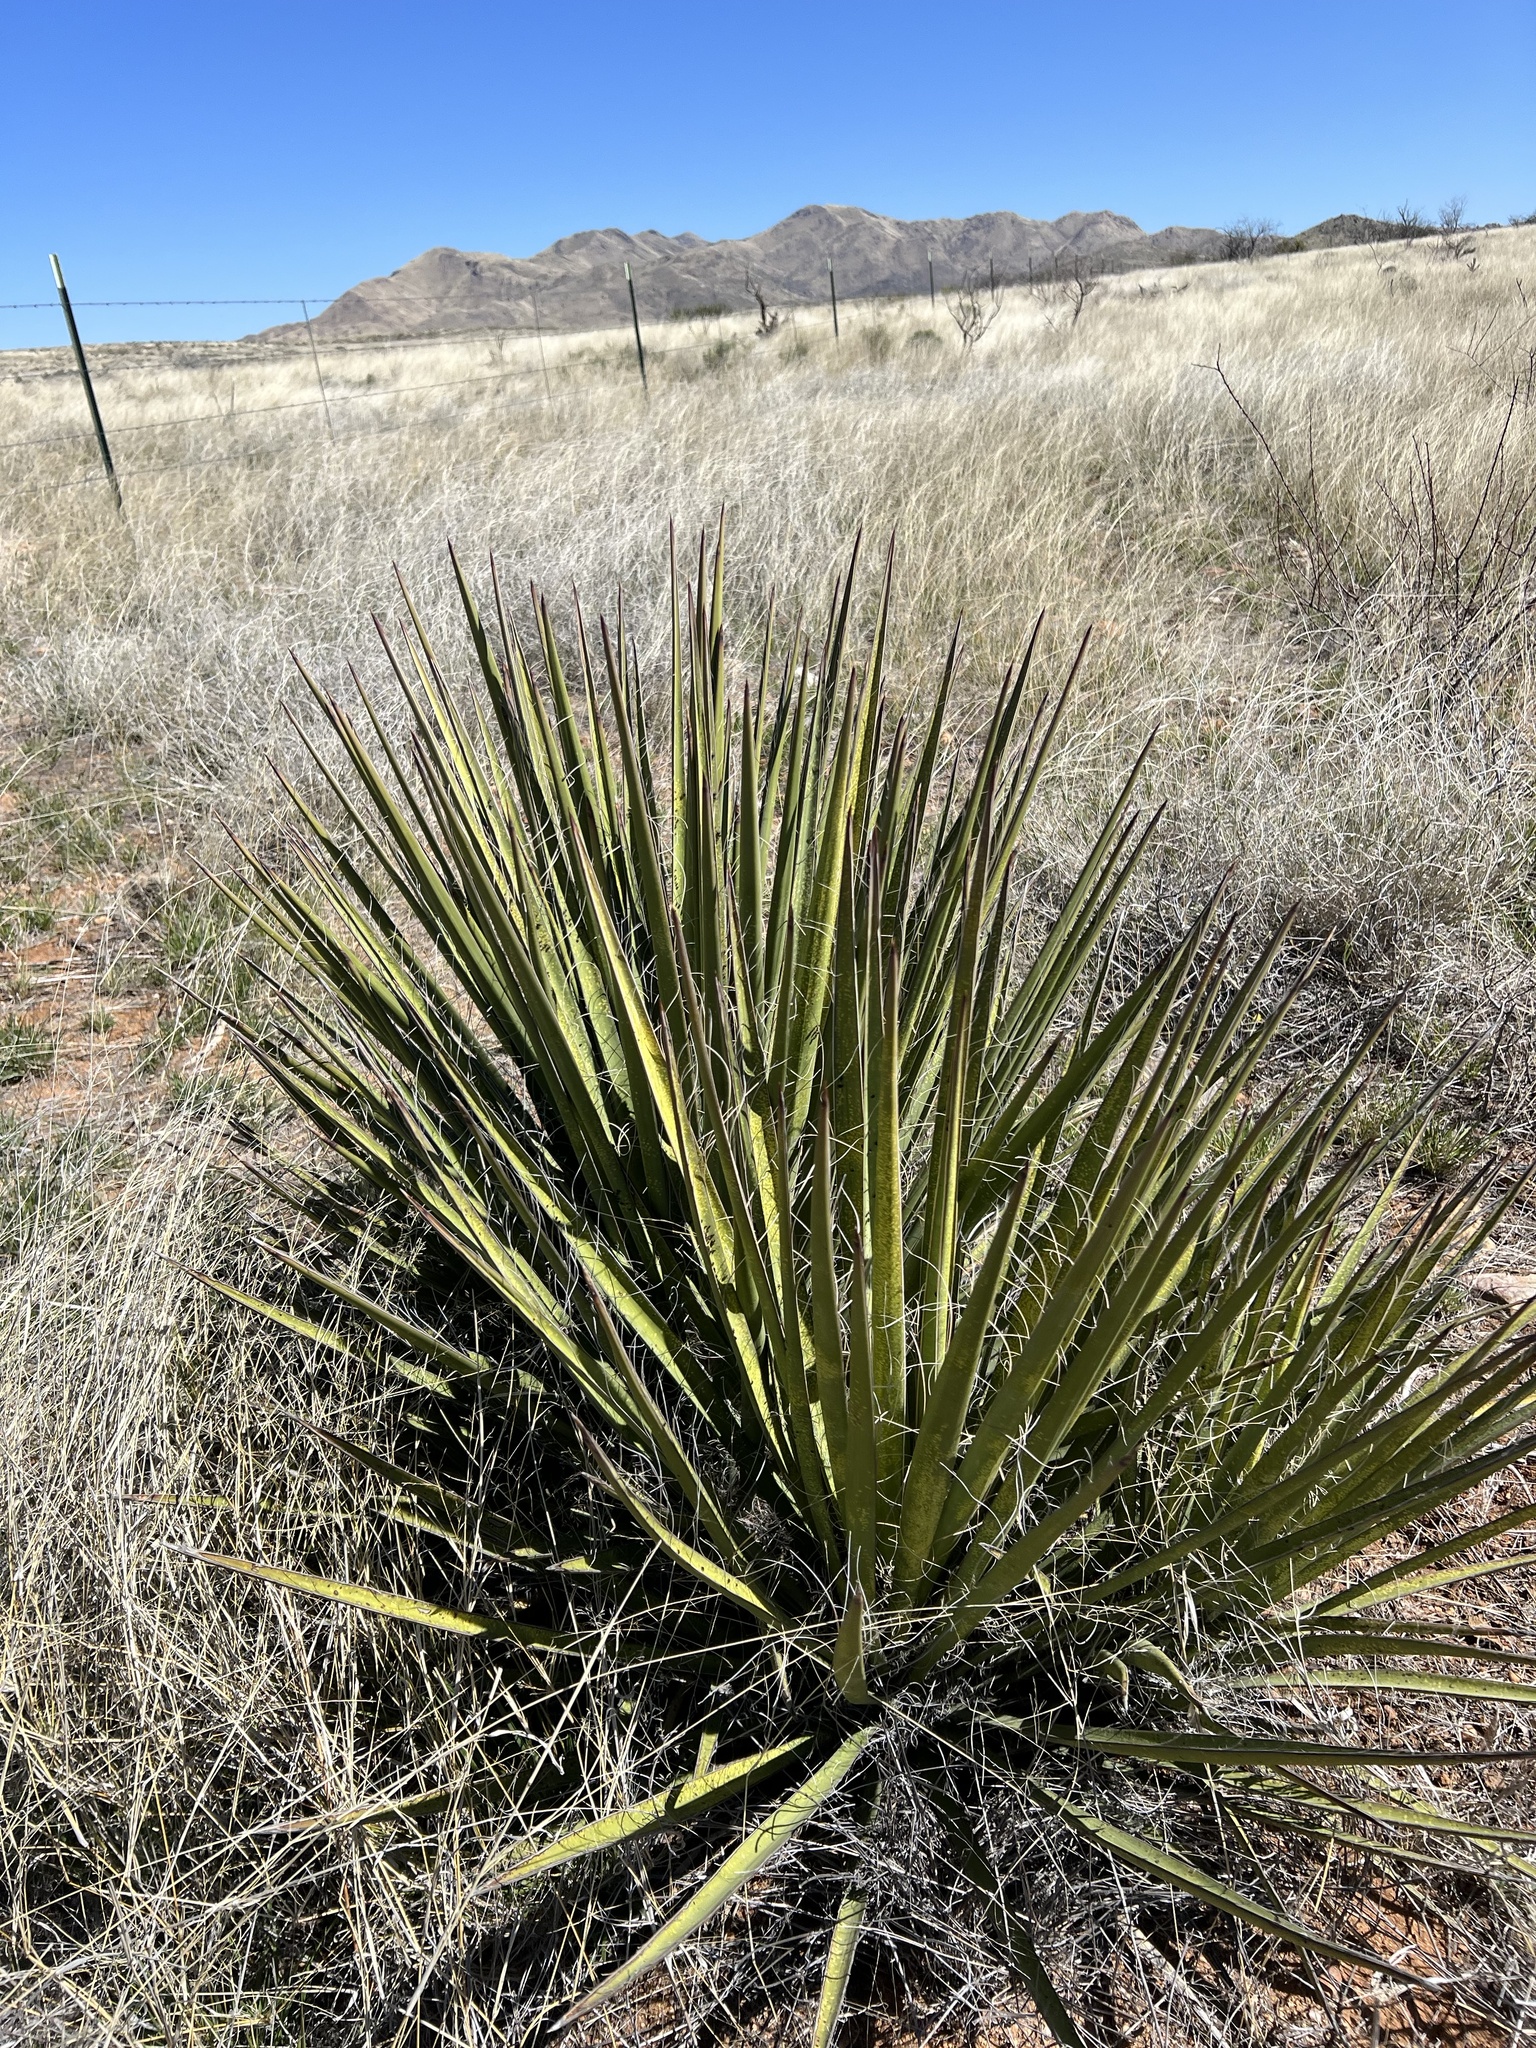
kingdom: Plantae
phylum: Tracheophyta
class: Liliopsida
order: Asparagales
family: Asparagaceae
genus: Yucca
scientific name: Yucca baccata
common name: Banana yucca
